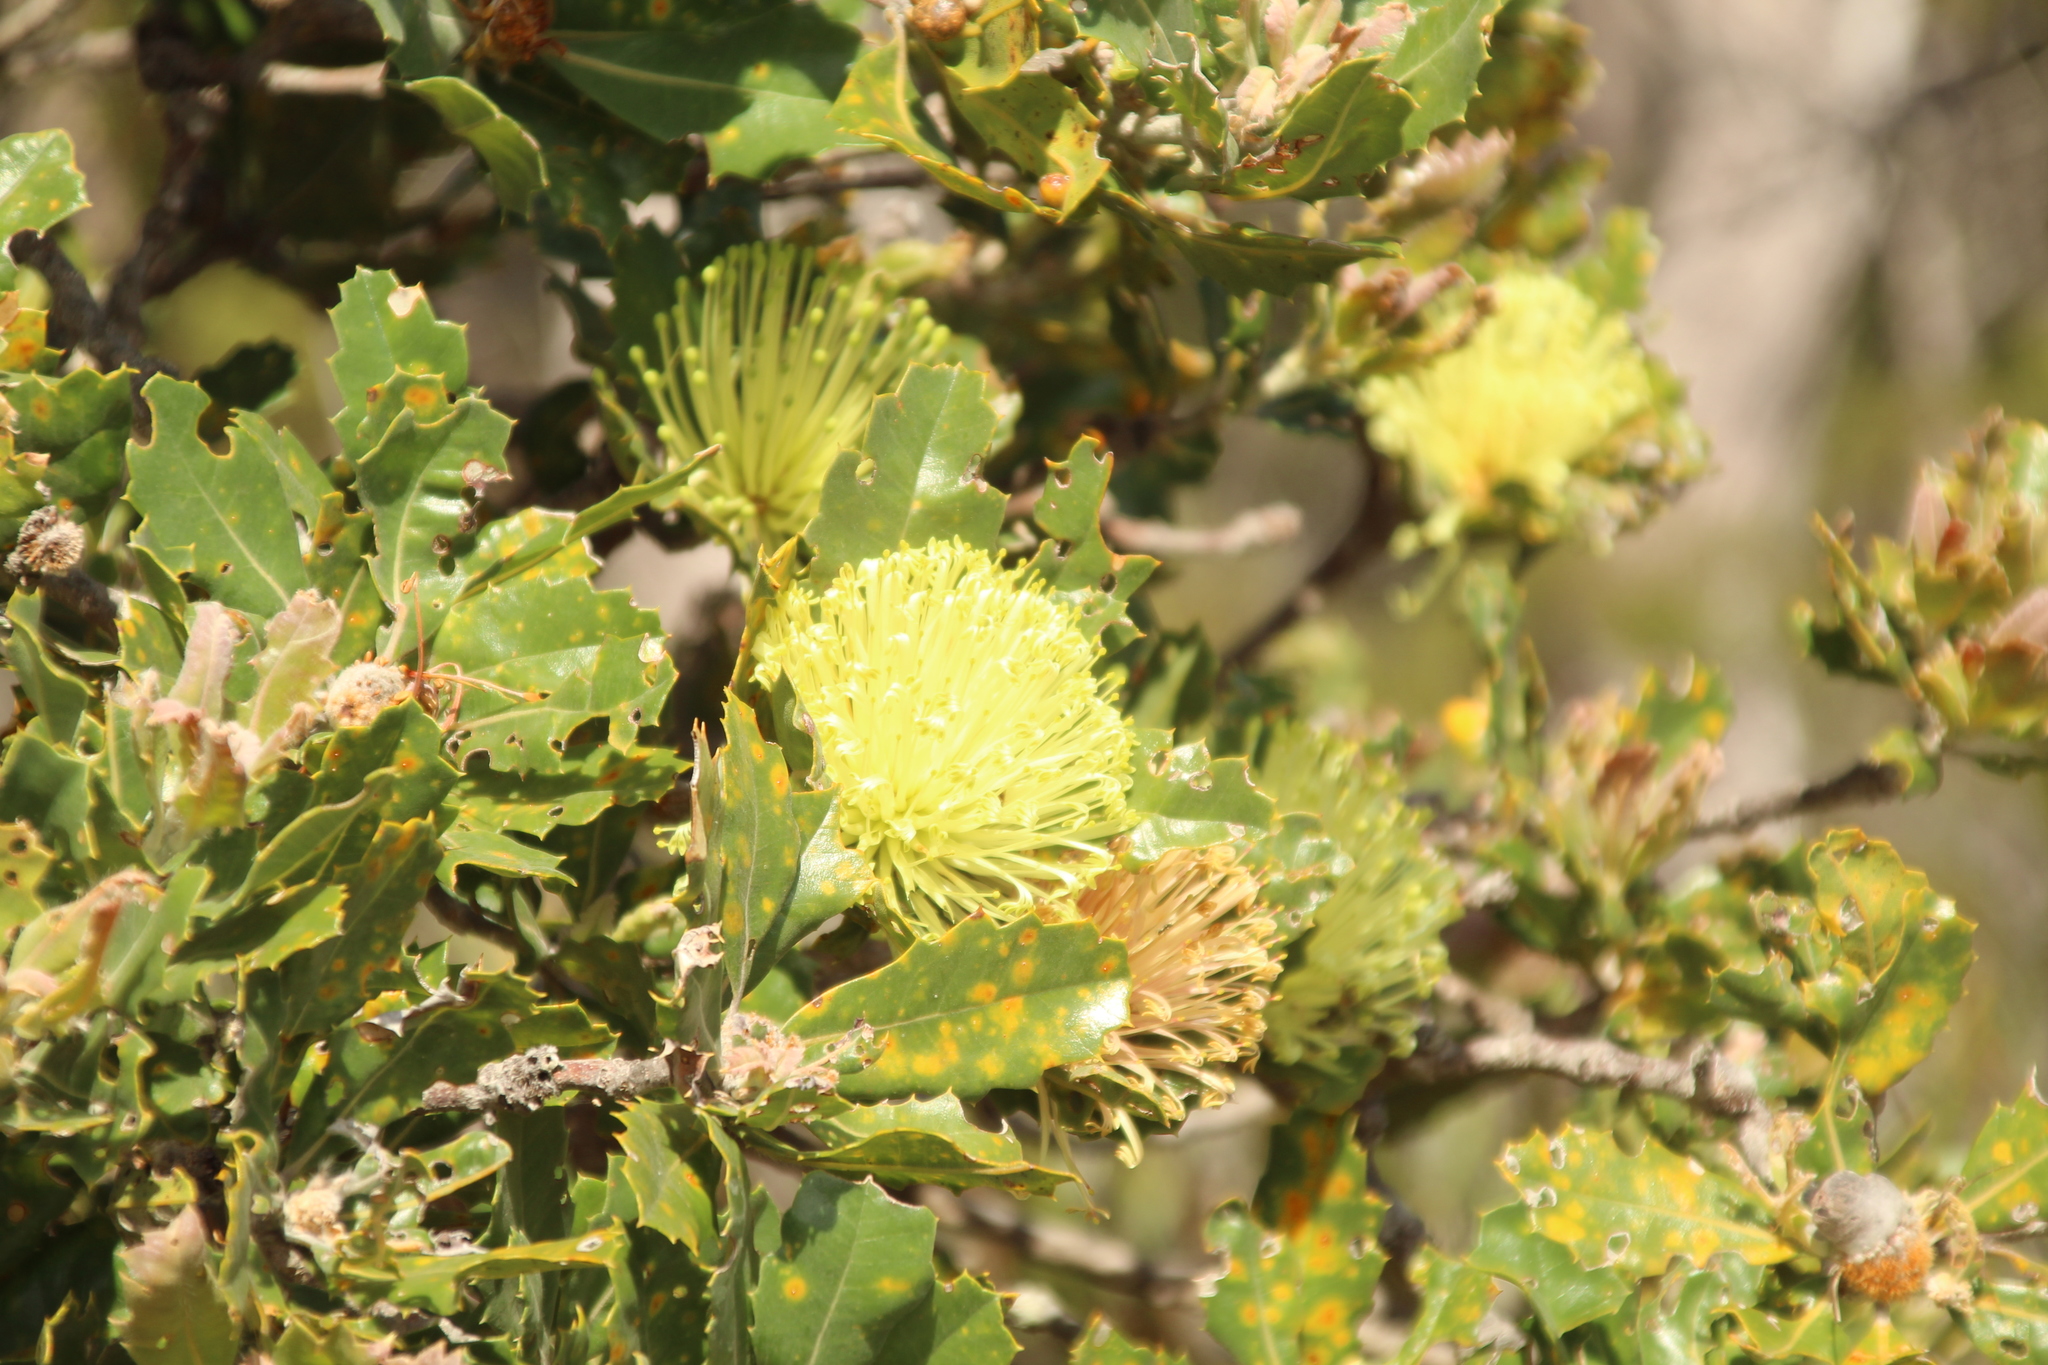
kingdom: Plantae
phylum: Tracheophyta
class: Magnoliopsida
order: Proteales
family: Proteaceae
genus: Banksia
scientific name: Banksia sessilis
